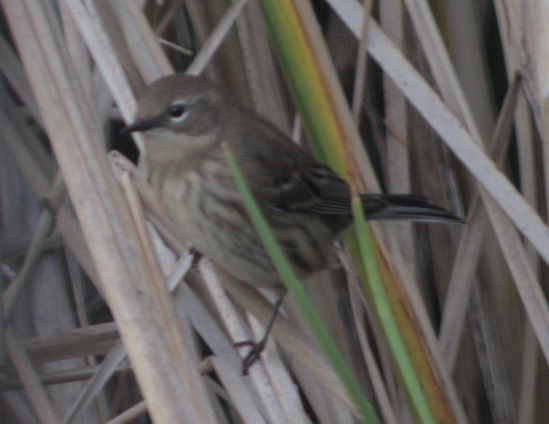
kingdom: Animalia
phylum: Chordata
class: Aves
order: Passeriformes
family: Parulidae
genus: Setophaga
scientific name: Setophaga coronata
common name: Myrtle warbler
